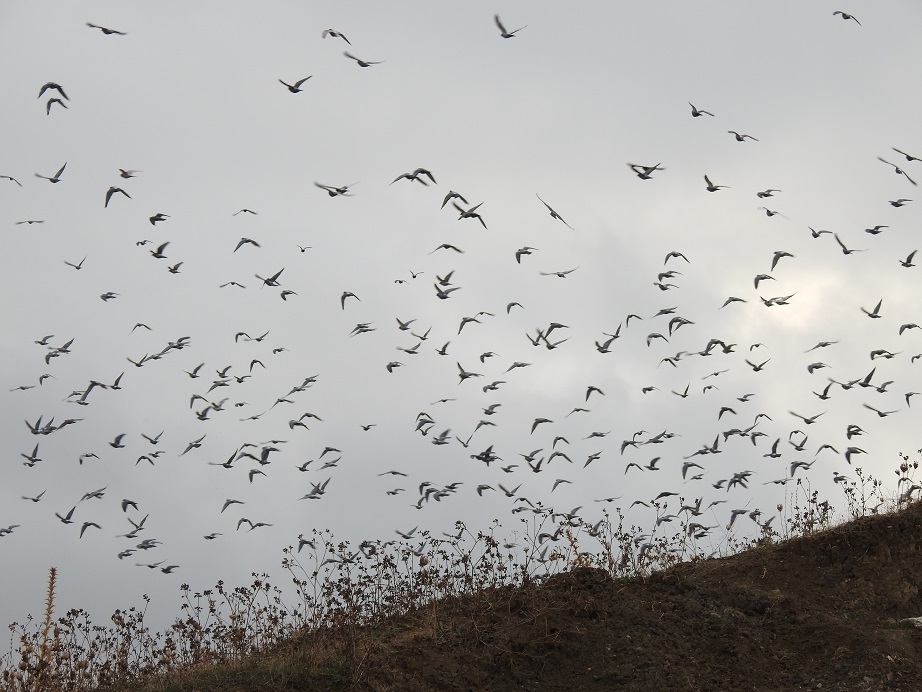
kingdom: Animalia
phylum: Chordata
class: Aves
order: Columbiformes
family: Columbidae
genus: Columba
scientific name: Columba livia
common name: Rock pigeon
